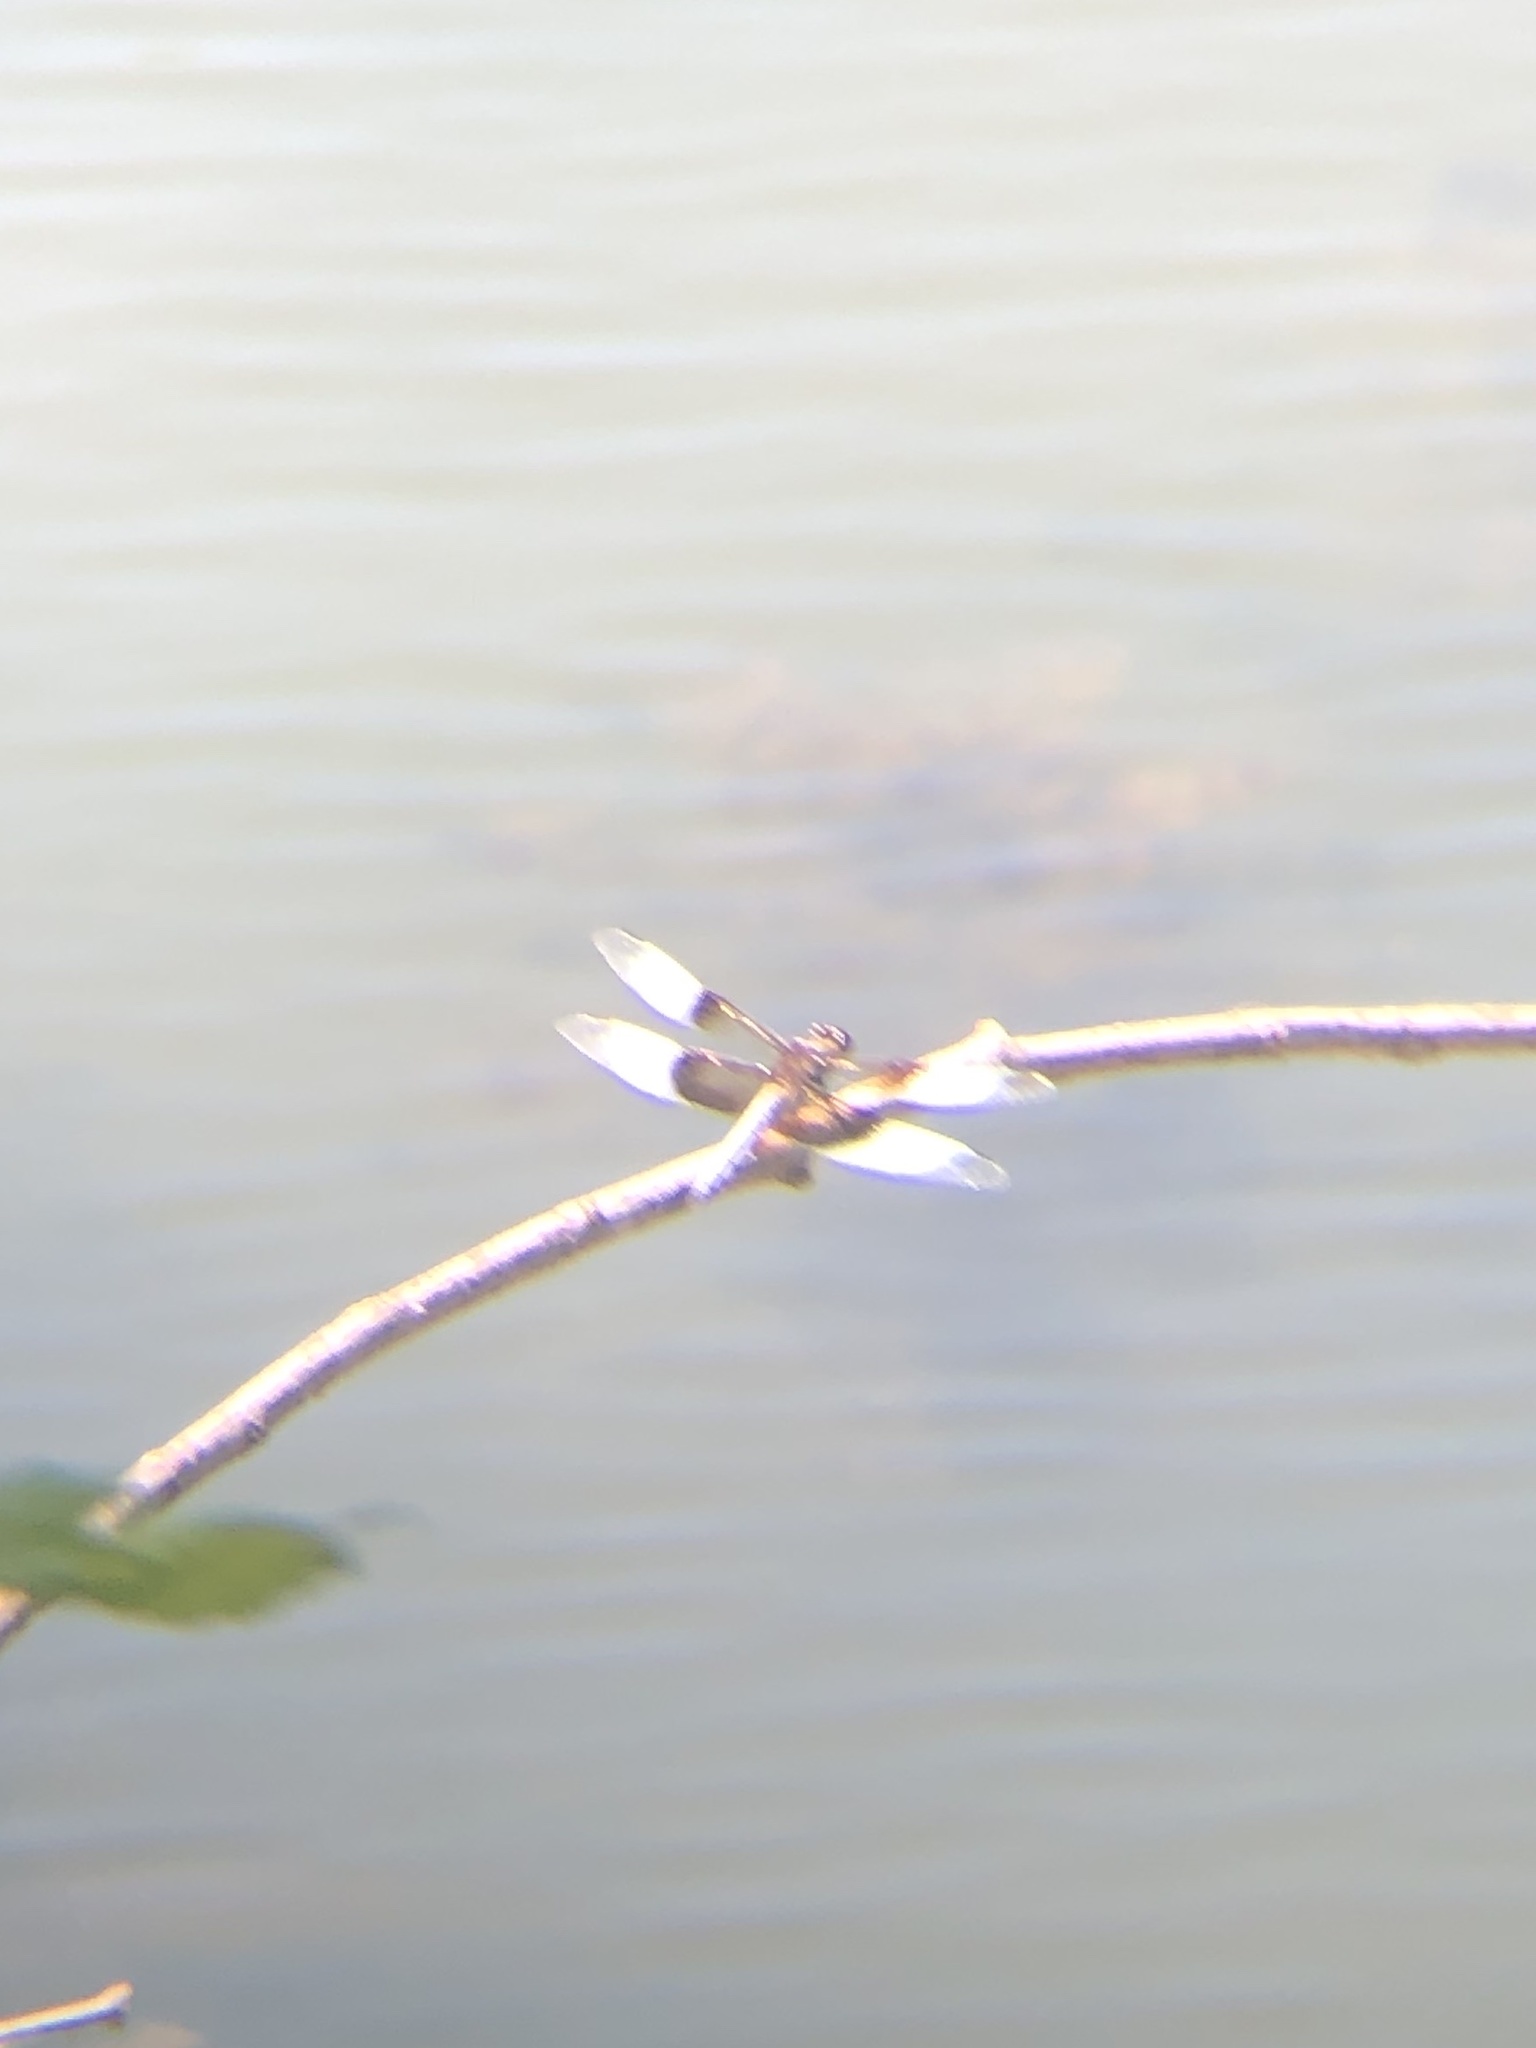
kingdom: Animalia
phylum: Arthropoda
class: Insecta
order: Odonata
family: Libellulidae
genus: Libellula
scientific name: Libellula luctuosa
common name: Widow skimmer
